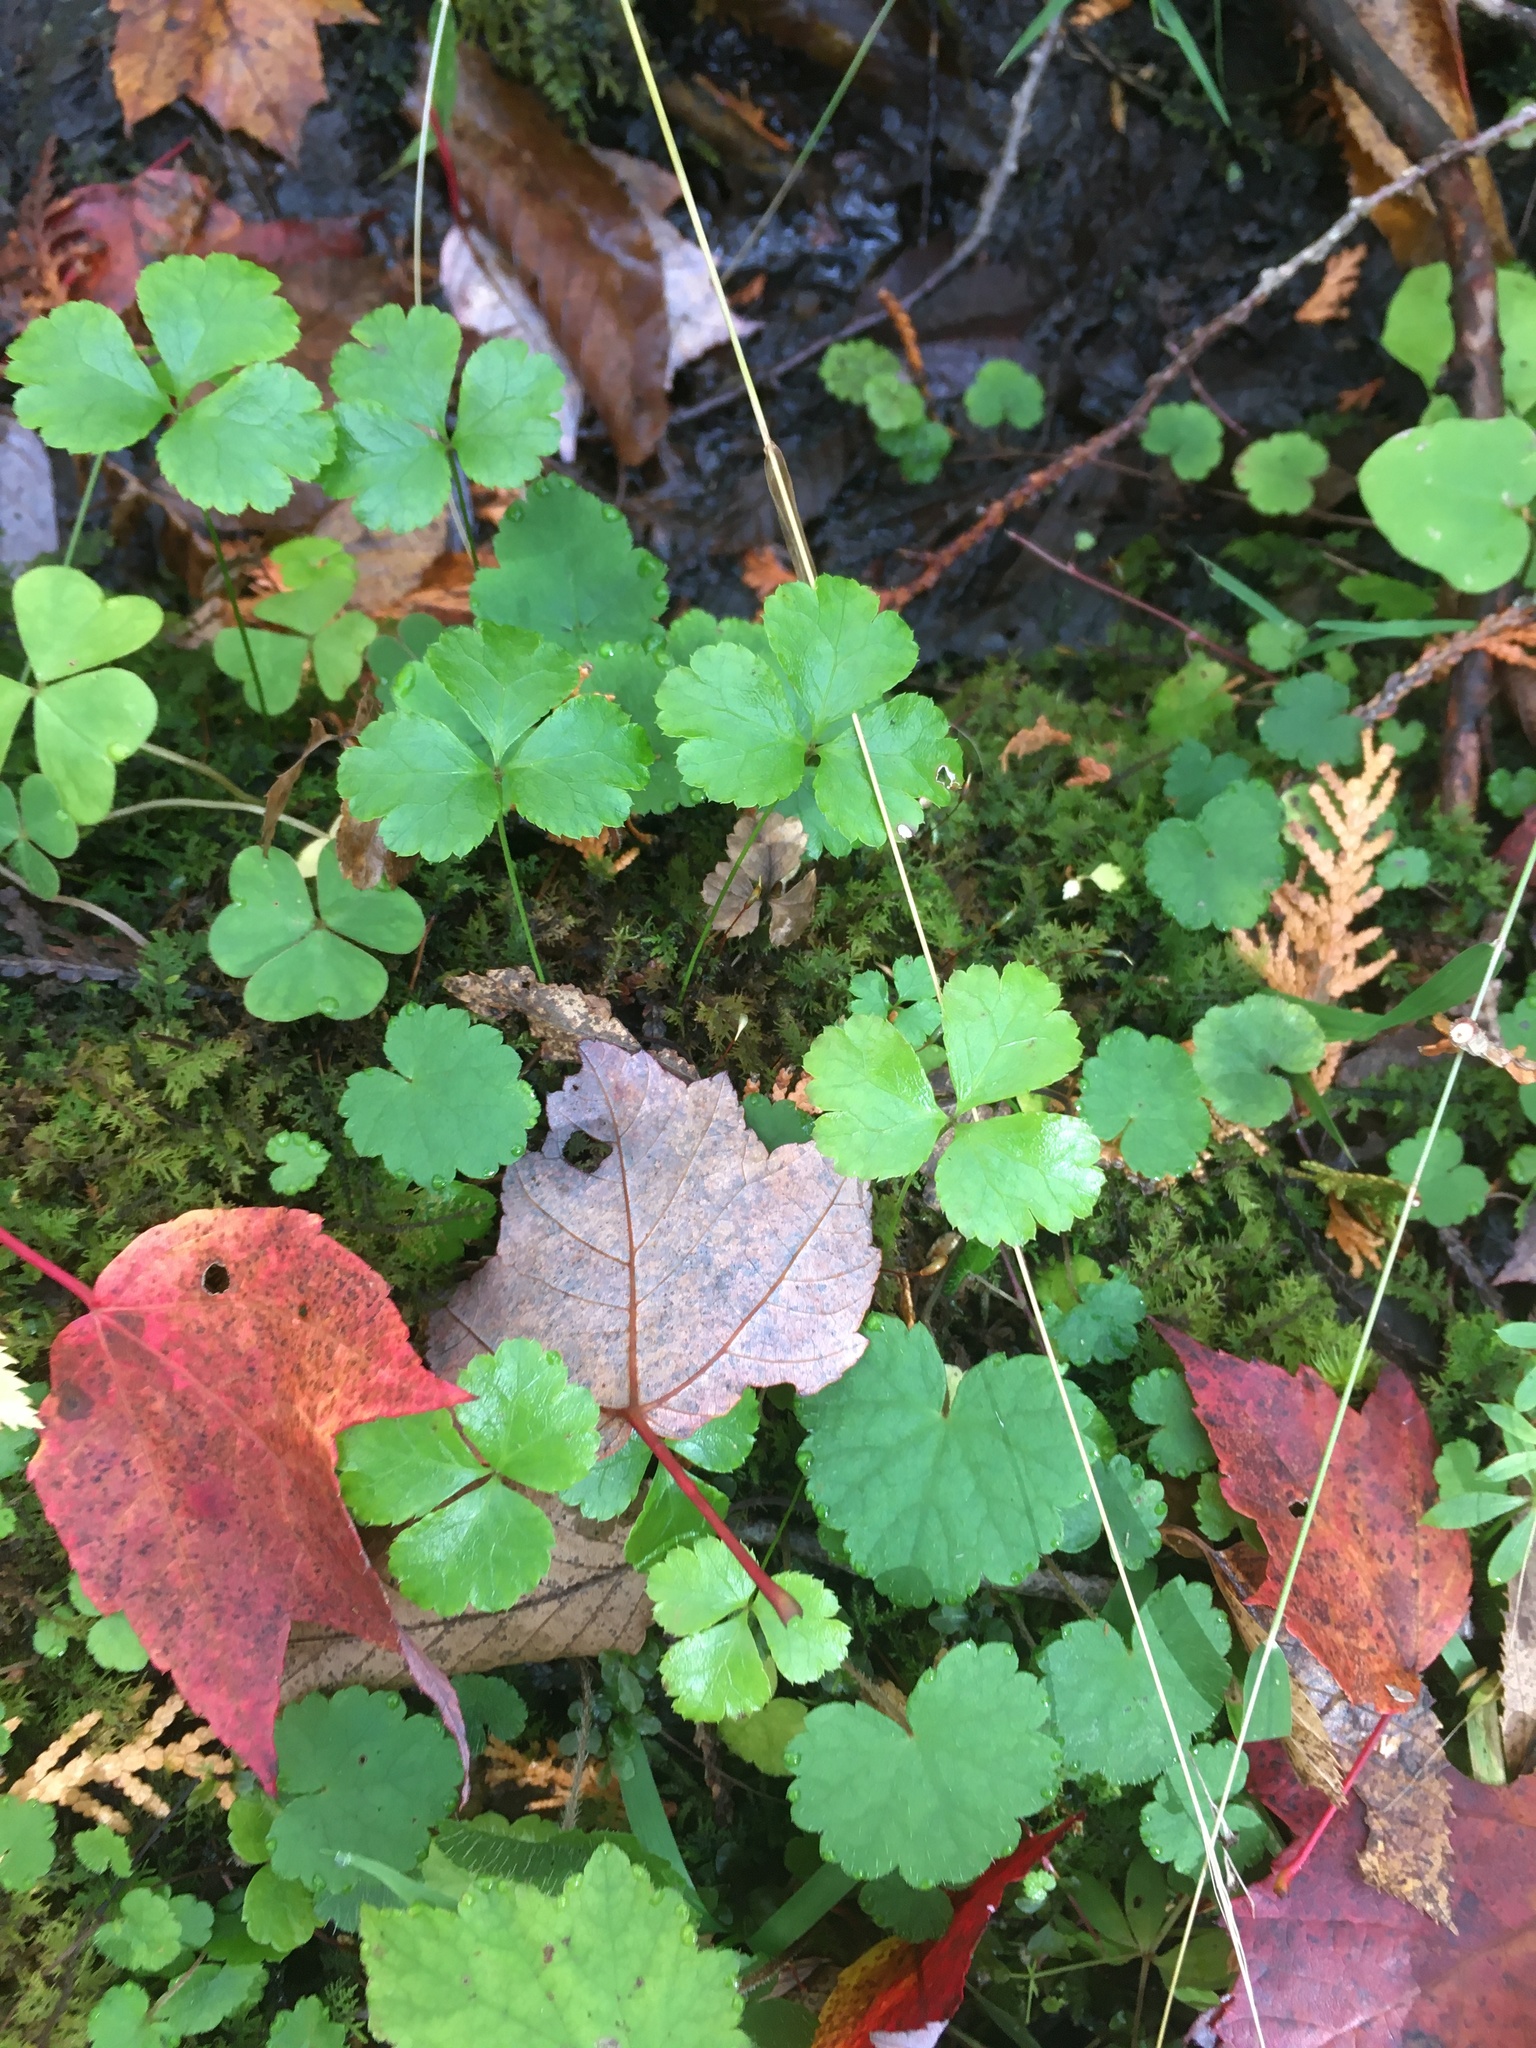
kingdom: Plantae
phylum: Tracheophyta
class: Magnoliopsida
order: Ranunculales
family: Ranunculaceae
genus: Coptis
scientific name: Coptis trifolia
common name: Canker-root
